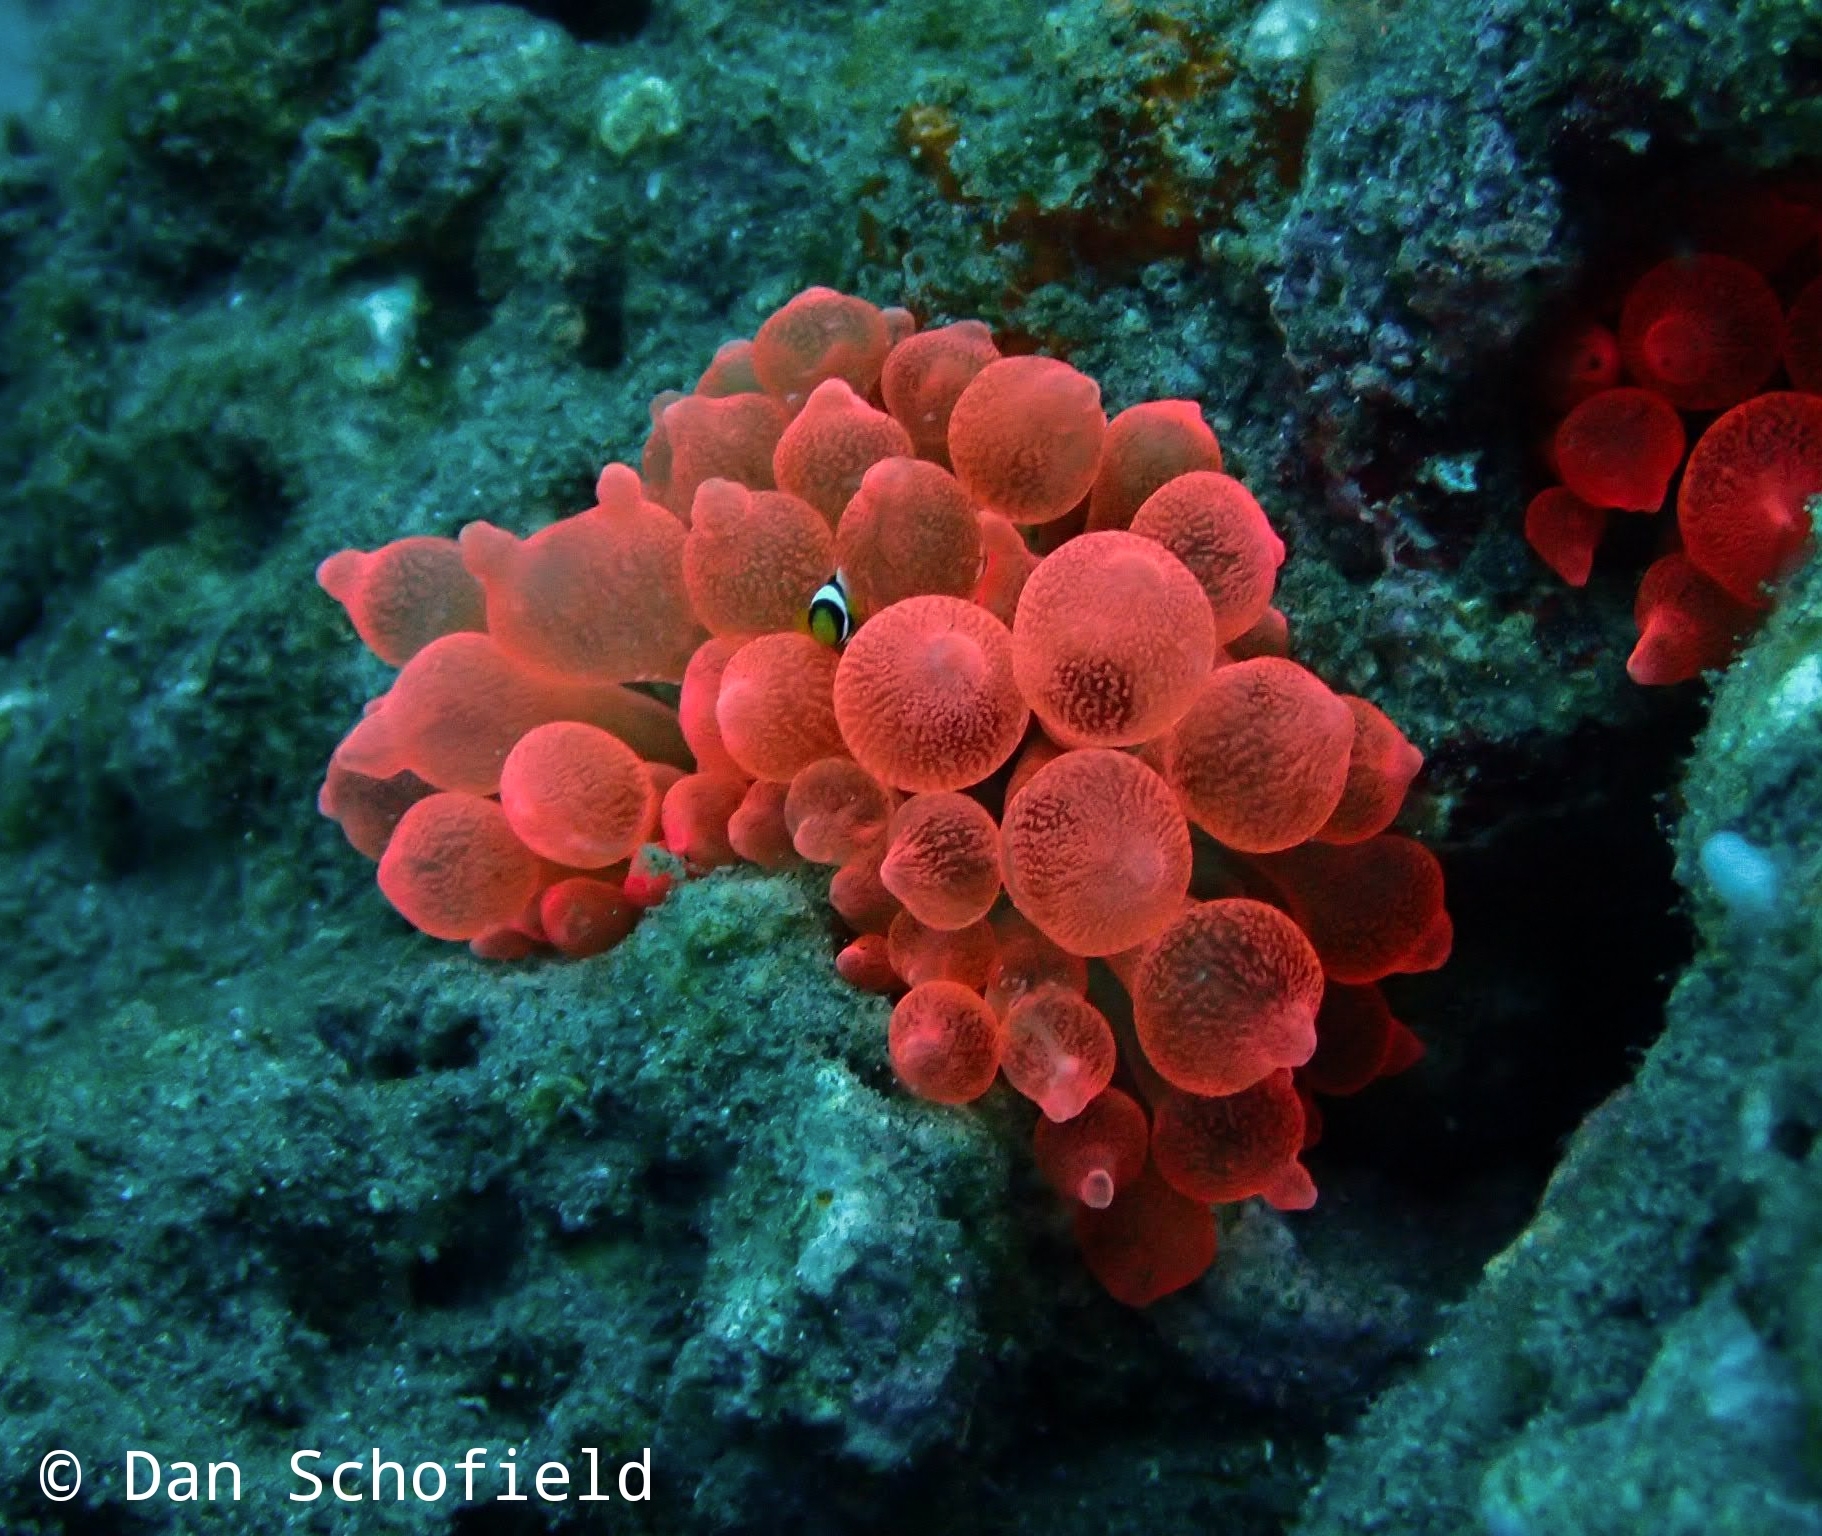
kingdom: Animalia
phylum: Cnidaria
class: Anthozoa
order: Actiniaria
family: Actiniidae
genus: Entacmaea
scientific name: Entacmaea quadricolor
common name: Bulb tentacle sea anemone
